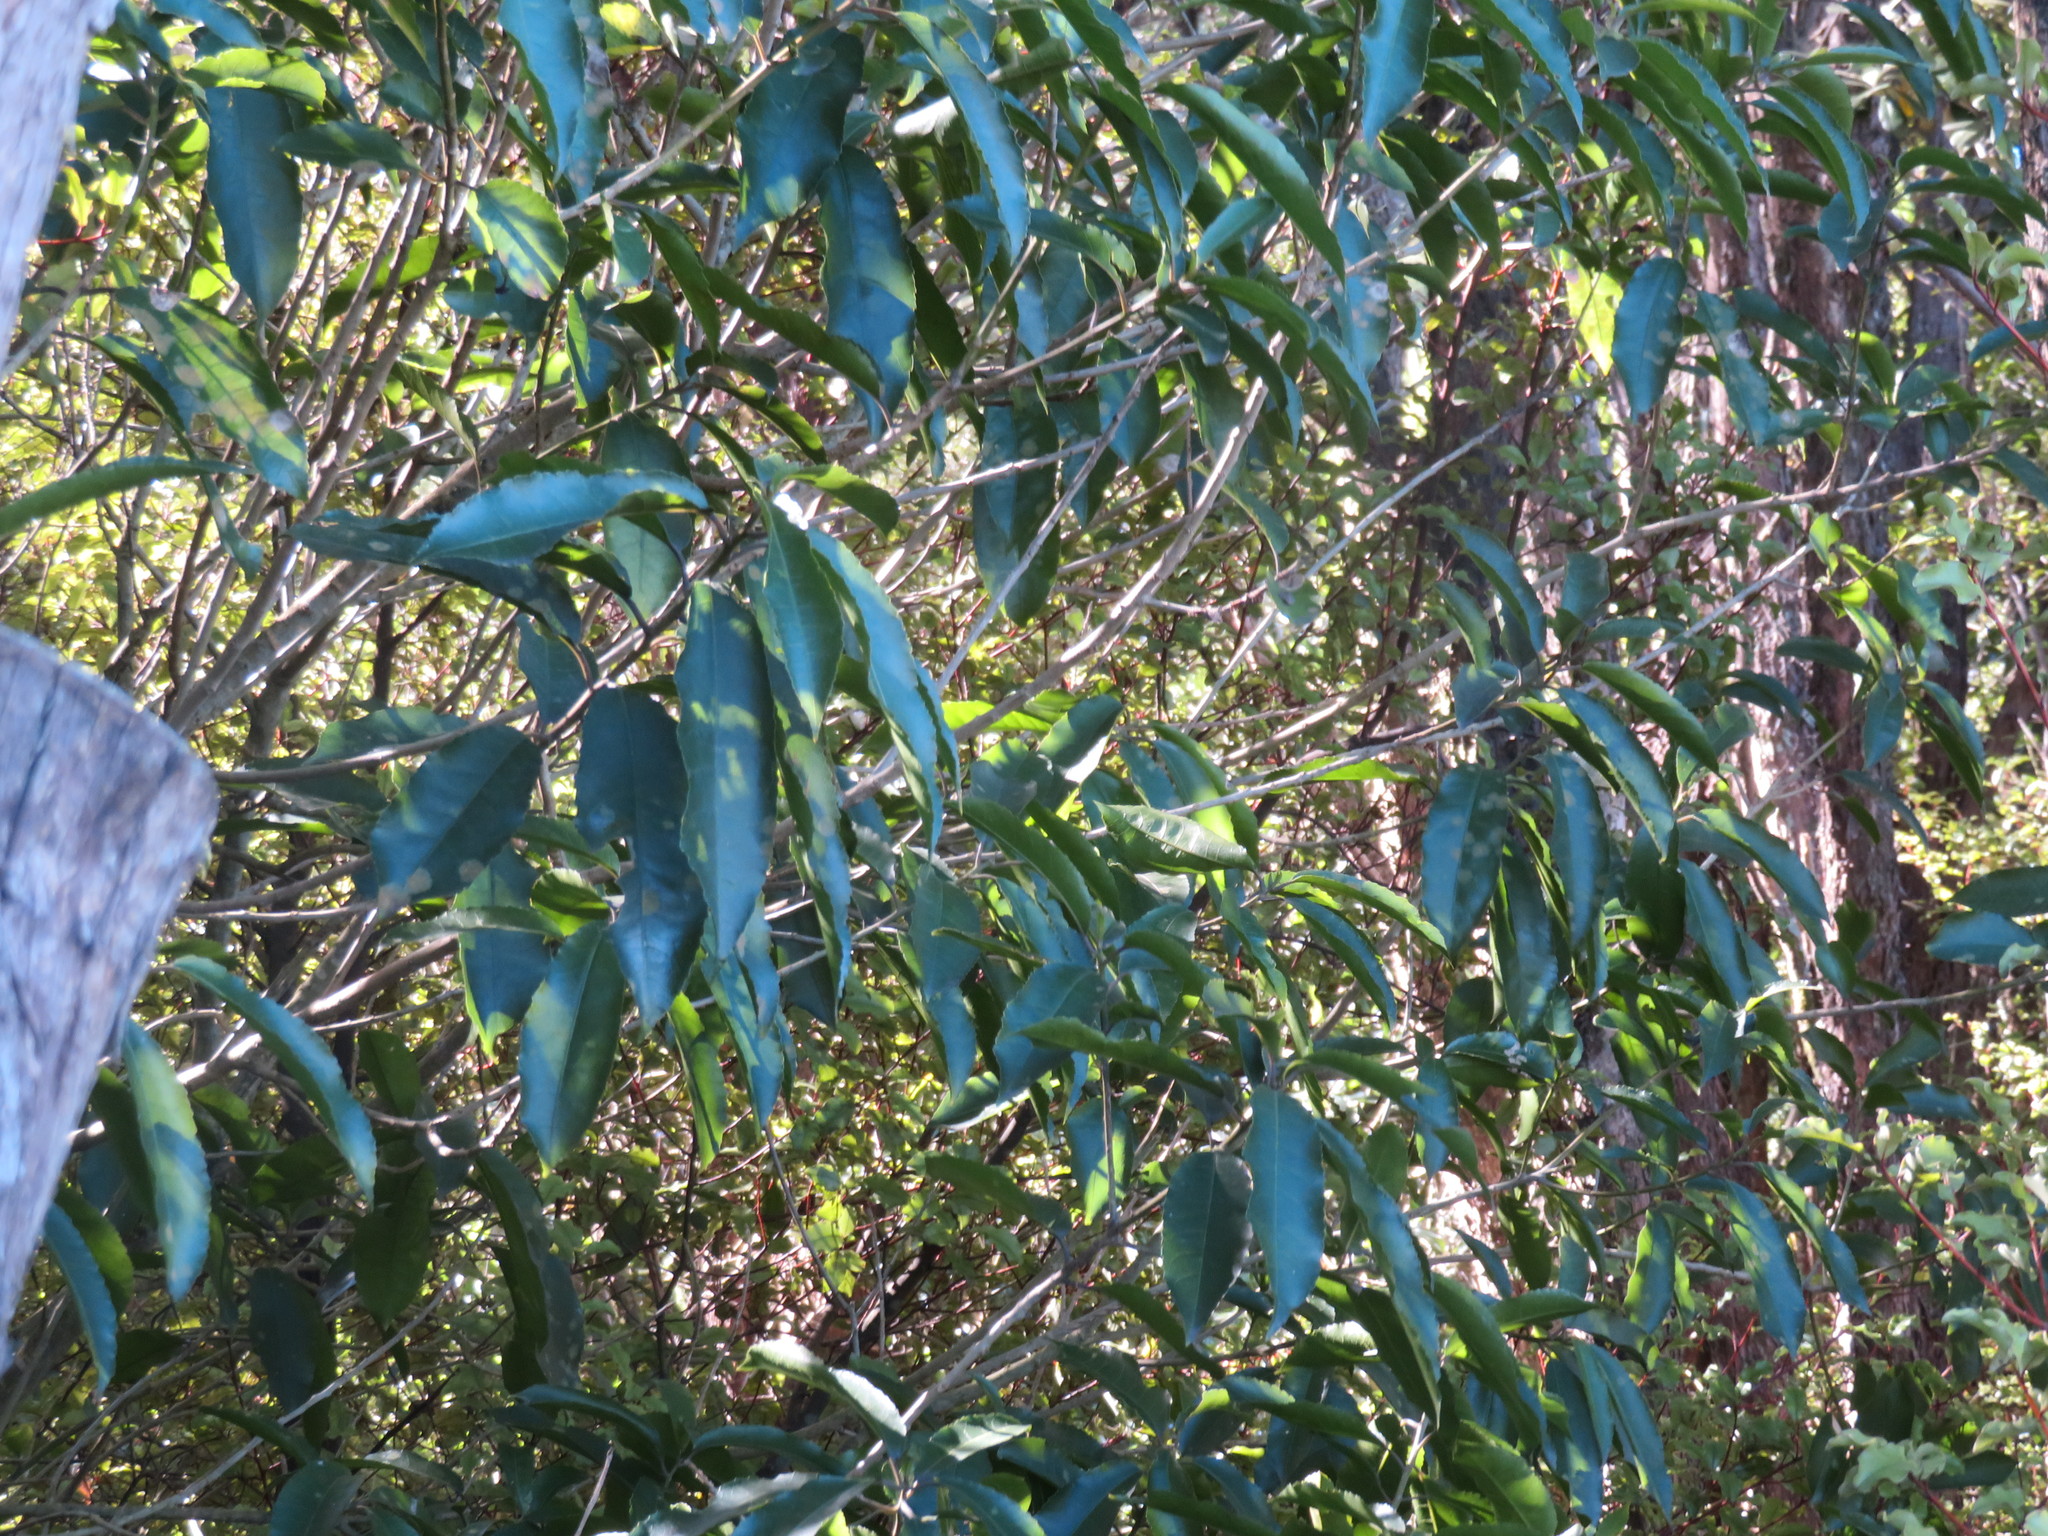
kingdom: Plantae
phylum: Tracheophyta
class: Magnoliopsida
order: Malpighiales
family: Violaceae
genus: Melicytus
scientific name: Melicytus ramiflorus
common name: Mahoe
